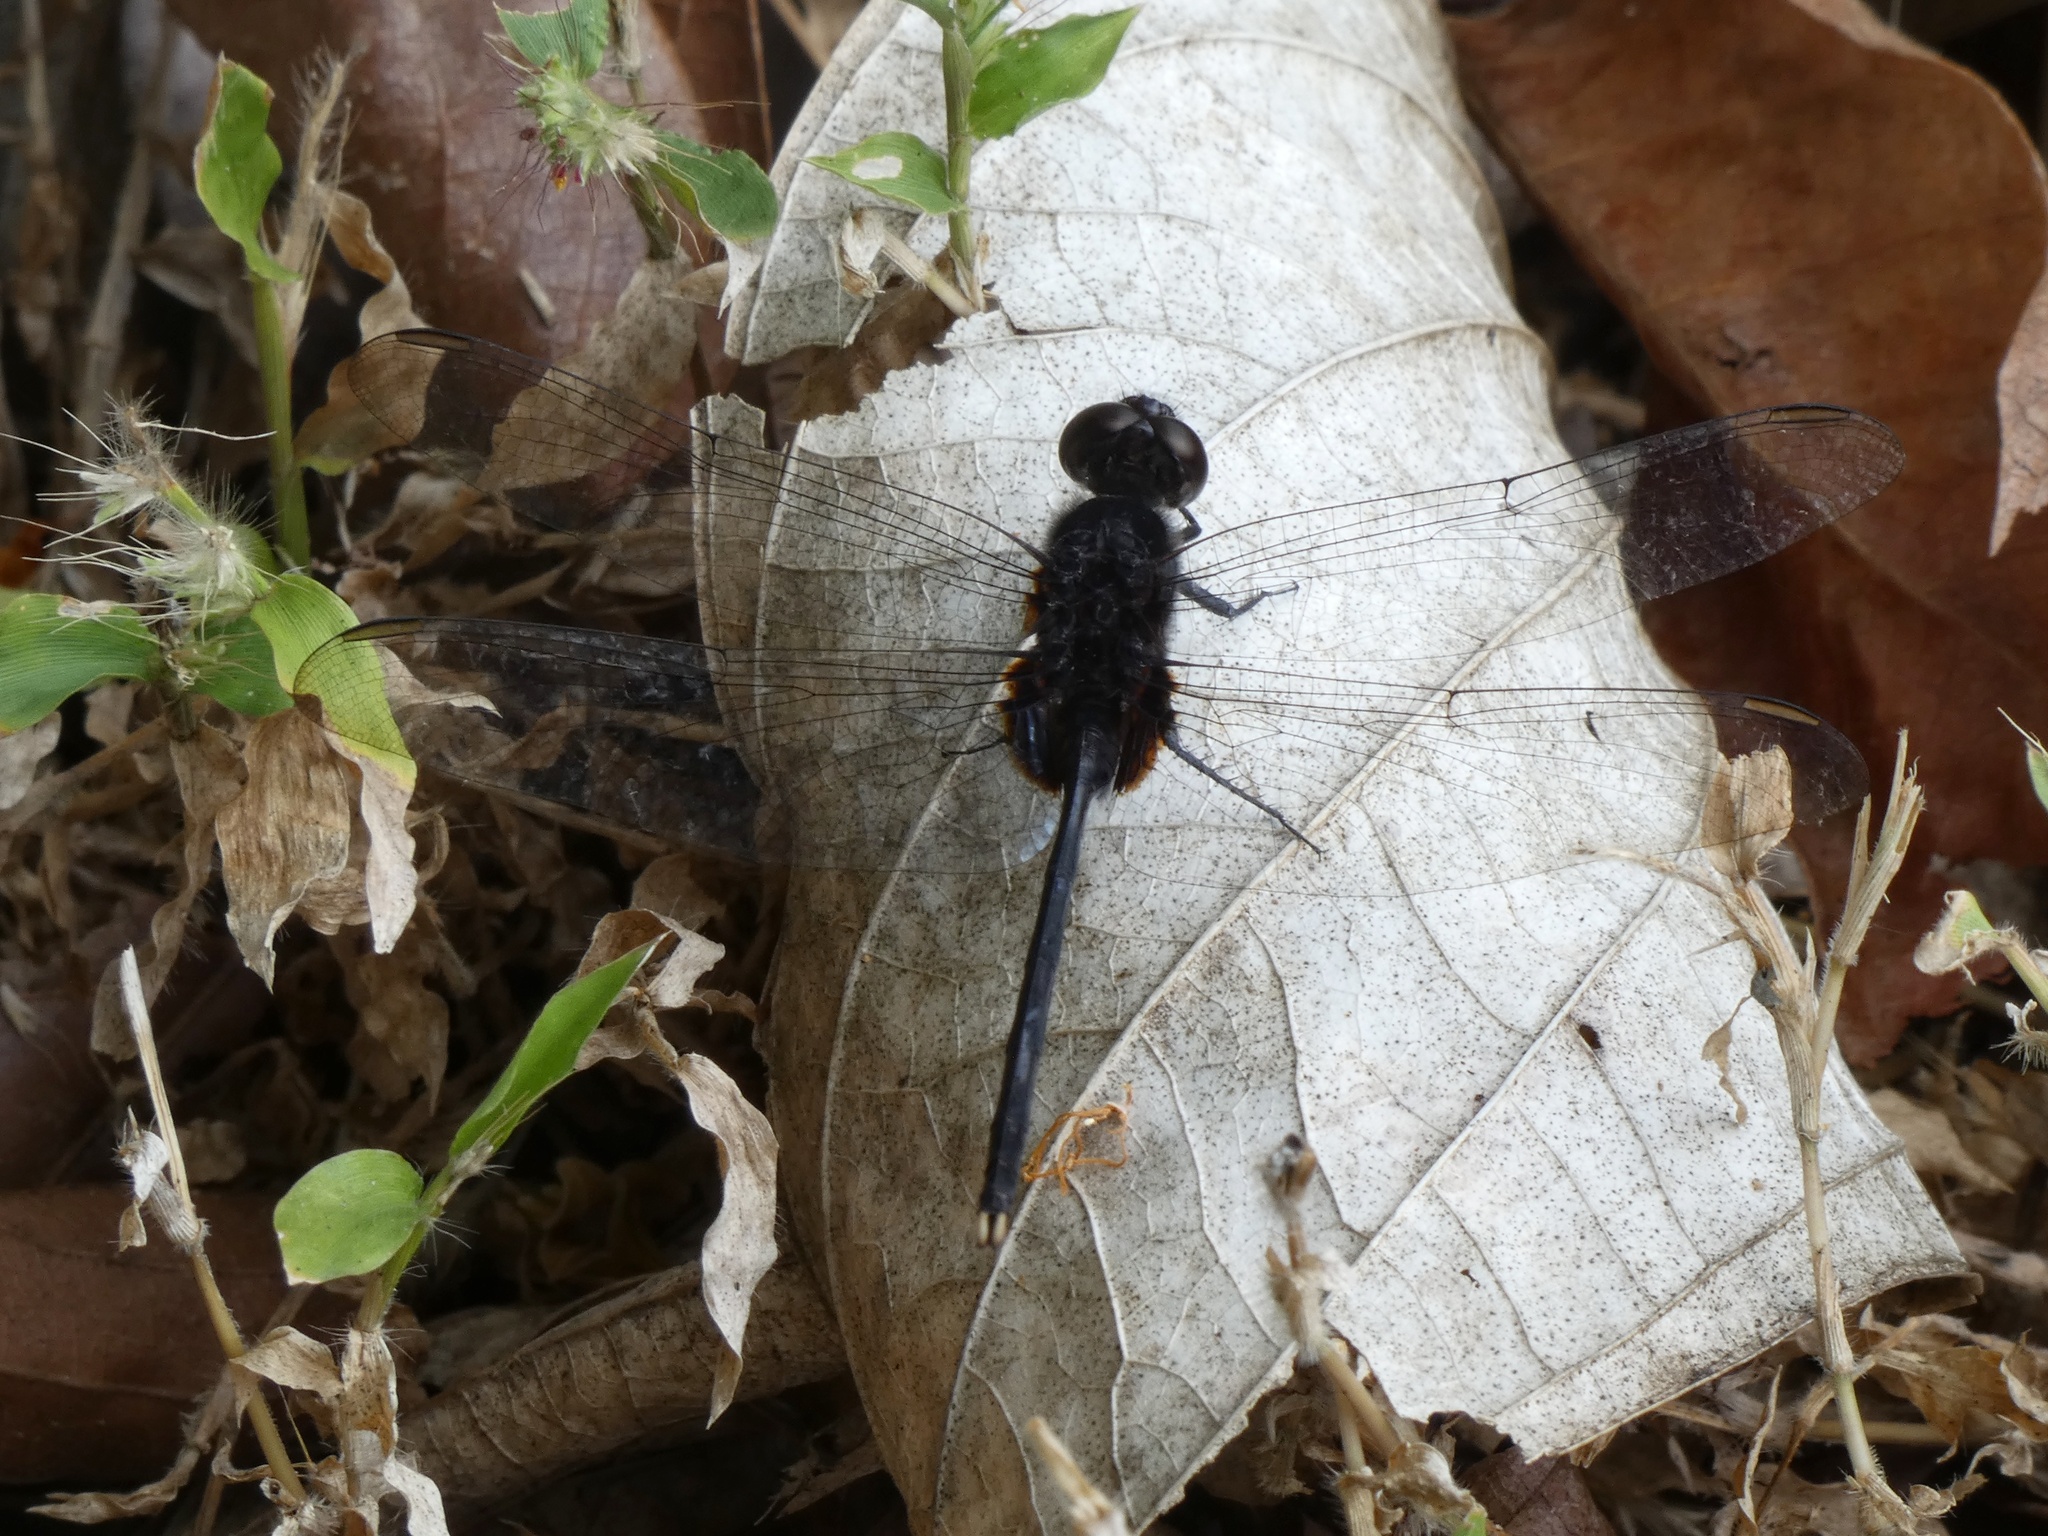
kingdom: Animalia
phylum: Arthropoda
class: Insecta
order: Odonata
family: Libellulidae
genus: Erythemis
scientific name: Erythemis plebeja
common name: Pin-tailed pondhawk
